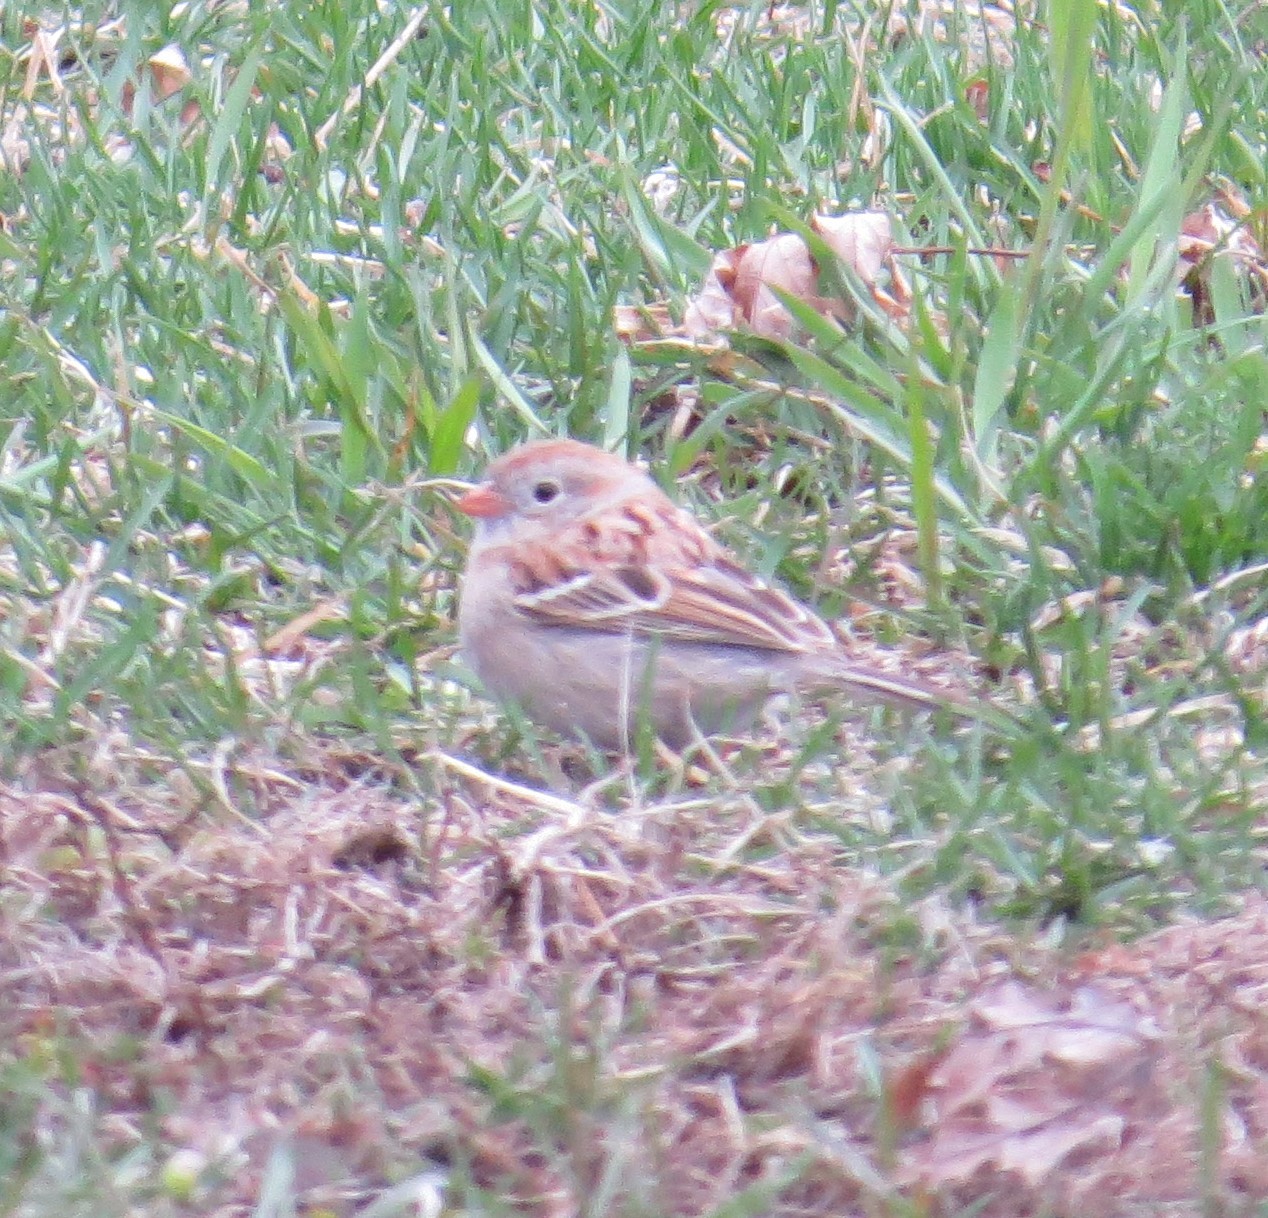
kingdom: Animalia
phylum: Chordata
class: Aves
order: Passeriformes
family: Passerellidae
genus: Spizella
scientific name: Spizella pusilla
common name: Field sparrow
